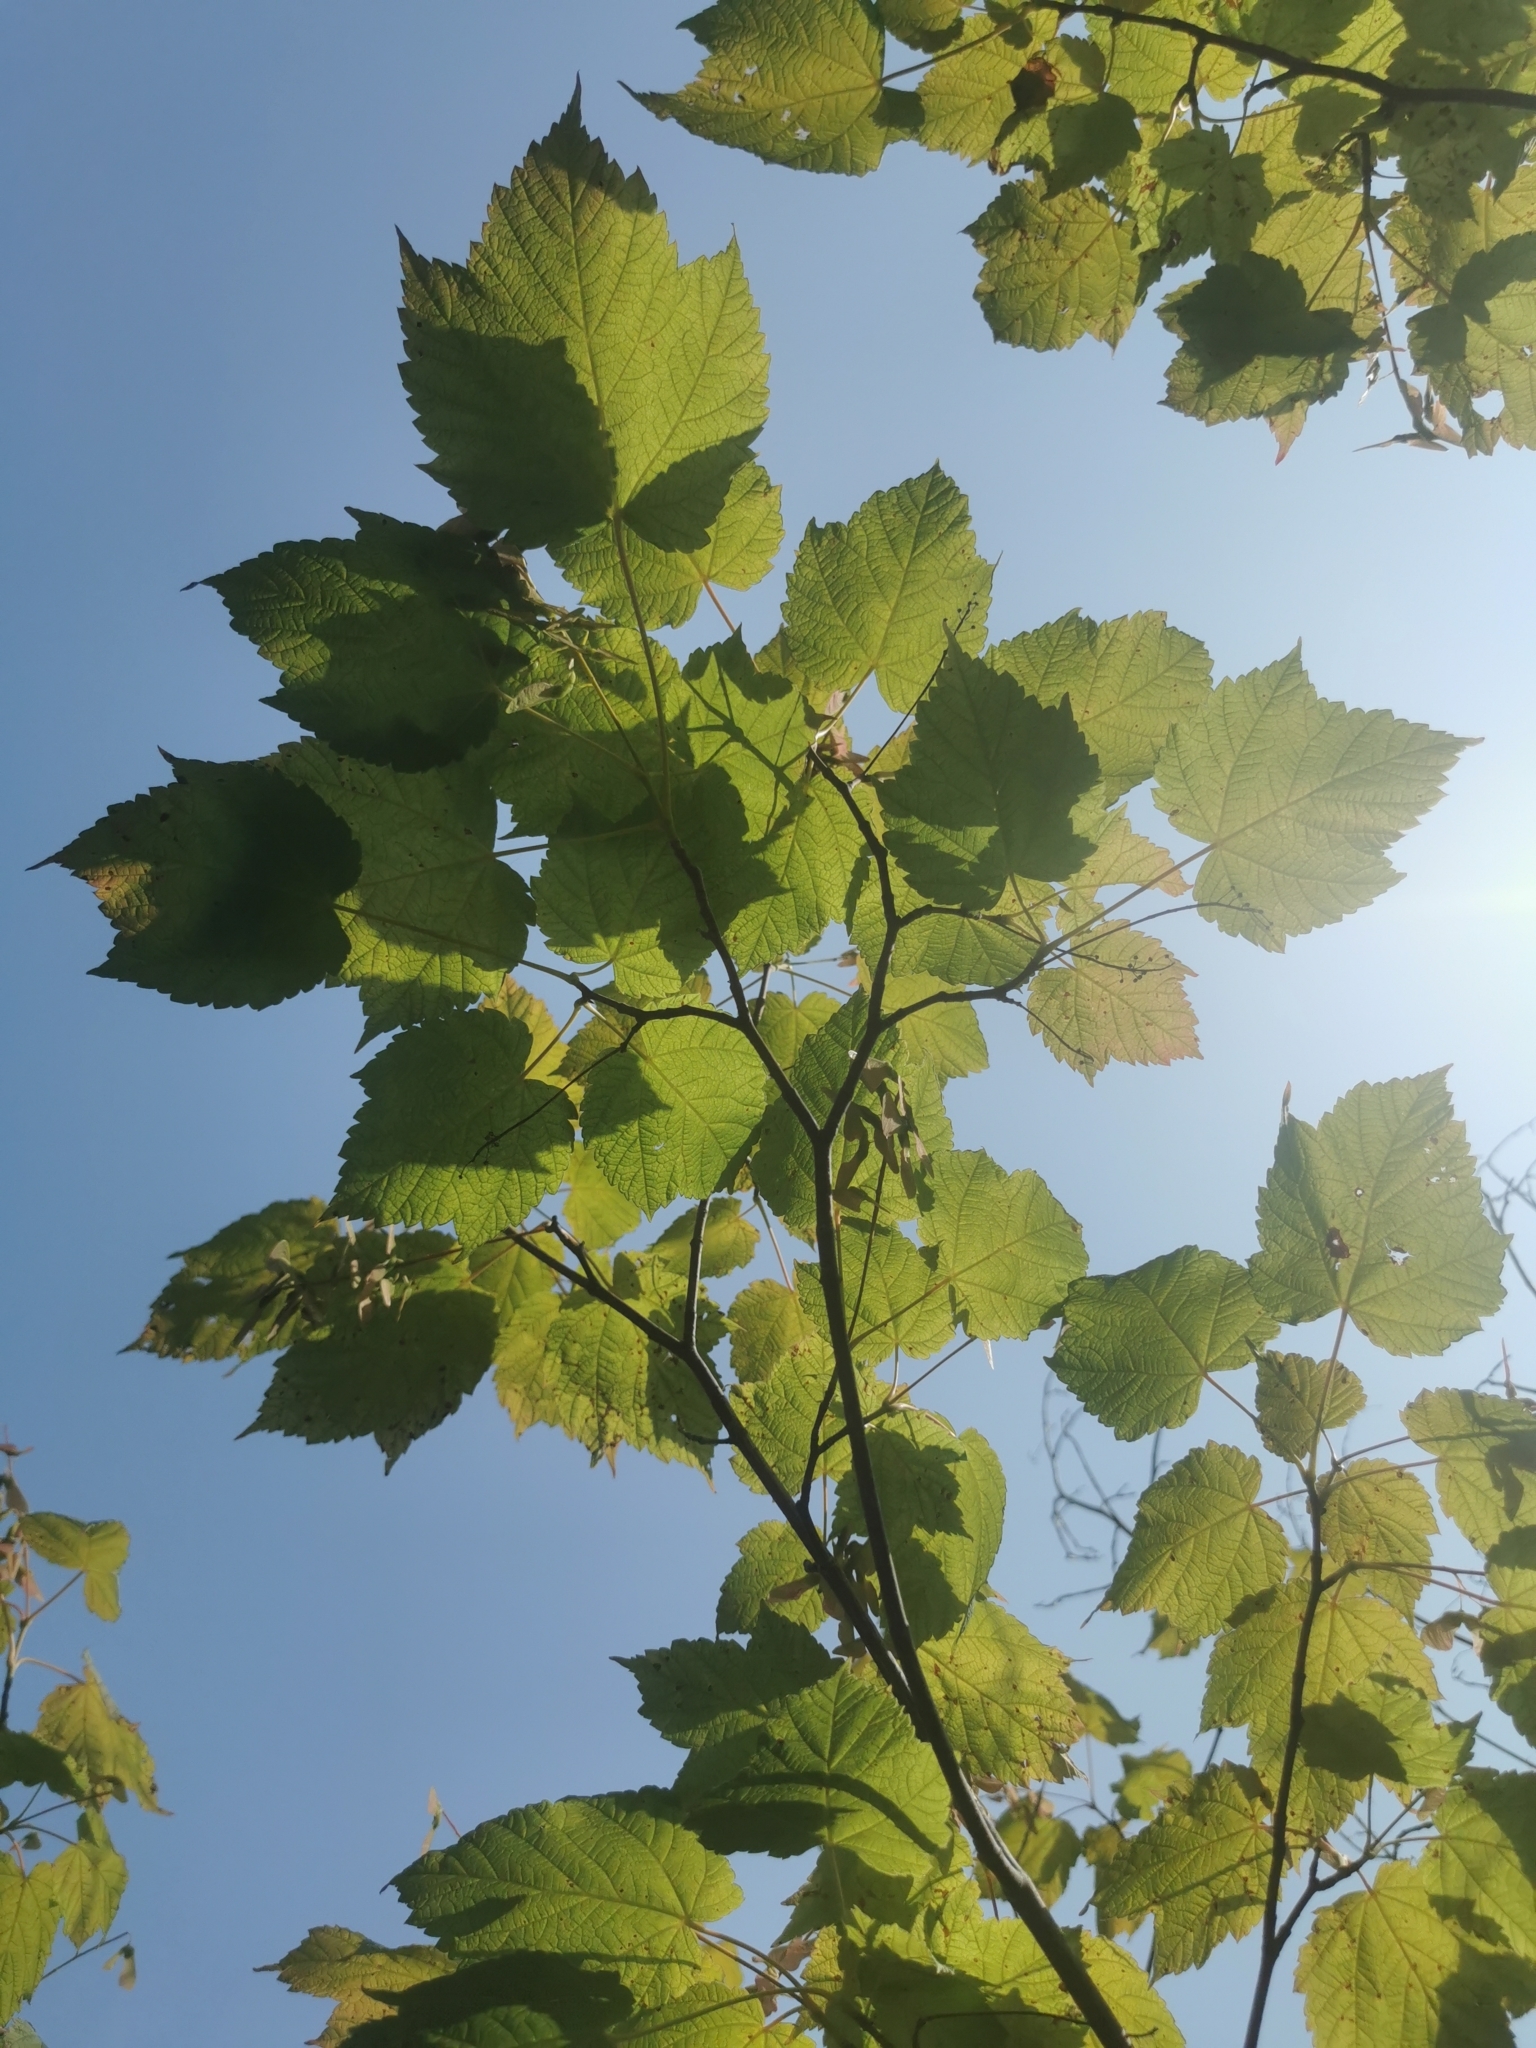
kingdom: Plantae
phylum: Tracheophyta
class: Magnoliopsida
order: Sapindales
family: Sapindaceae
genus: Acer
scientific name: Acer spicatum
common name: Mountain maple
